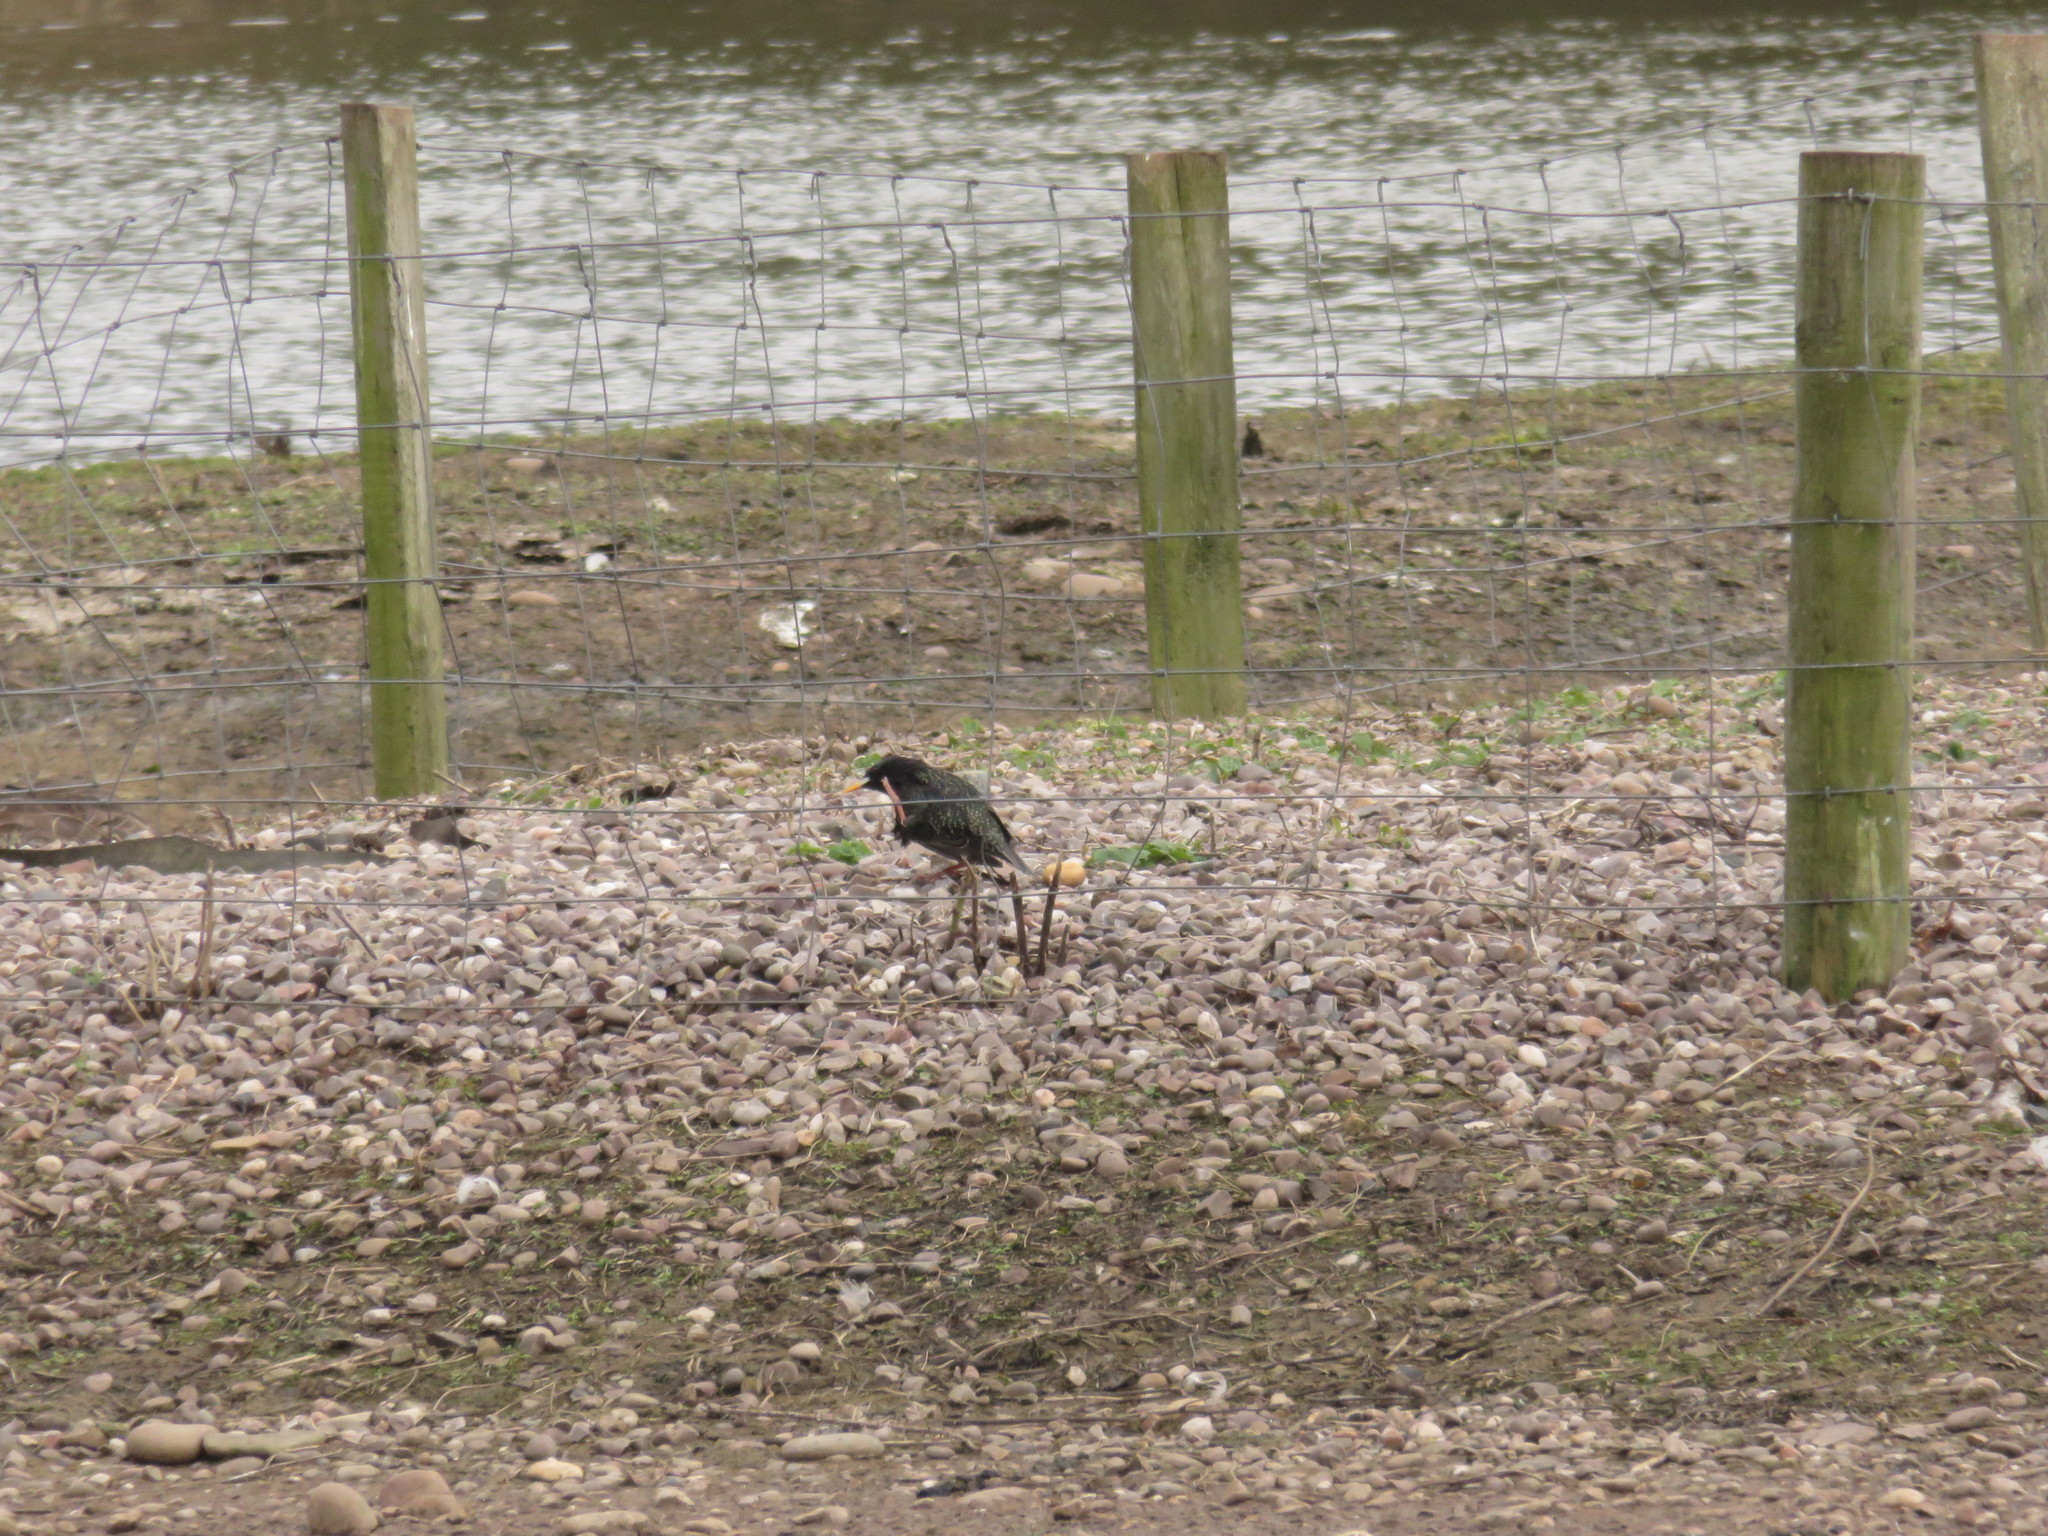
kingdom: Animalia
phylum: Chordata
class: Aves
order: Passeriformes
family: Sturnidae
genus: Sturnus
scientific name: Sturnus vulgaris
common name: Common starling
